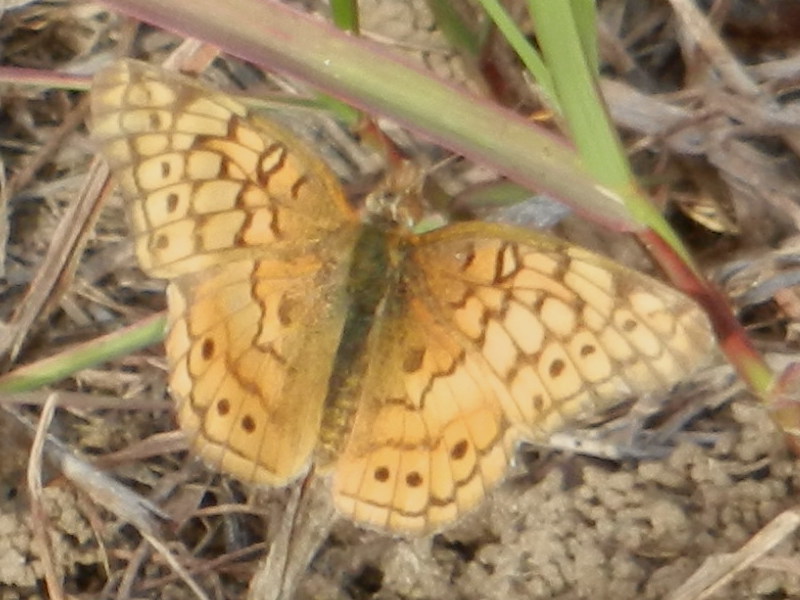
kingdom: Animalia
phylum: Arthropoda
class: Insecta
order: Lepidoptera
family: Nymphalidae
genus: Euptoieta
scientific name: Euptoieta claudia
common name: Variegated fritillary
